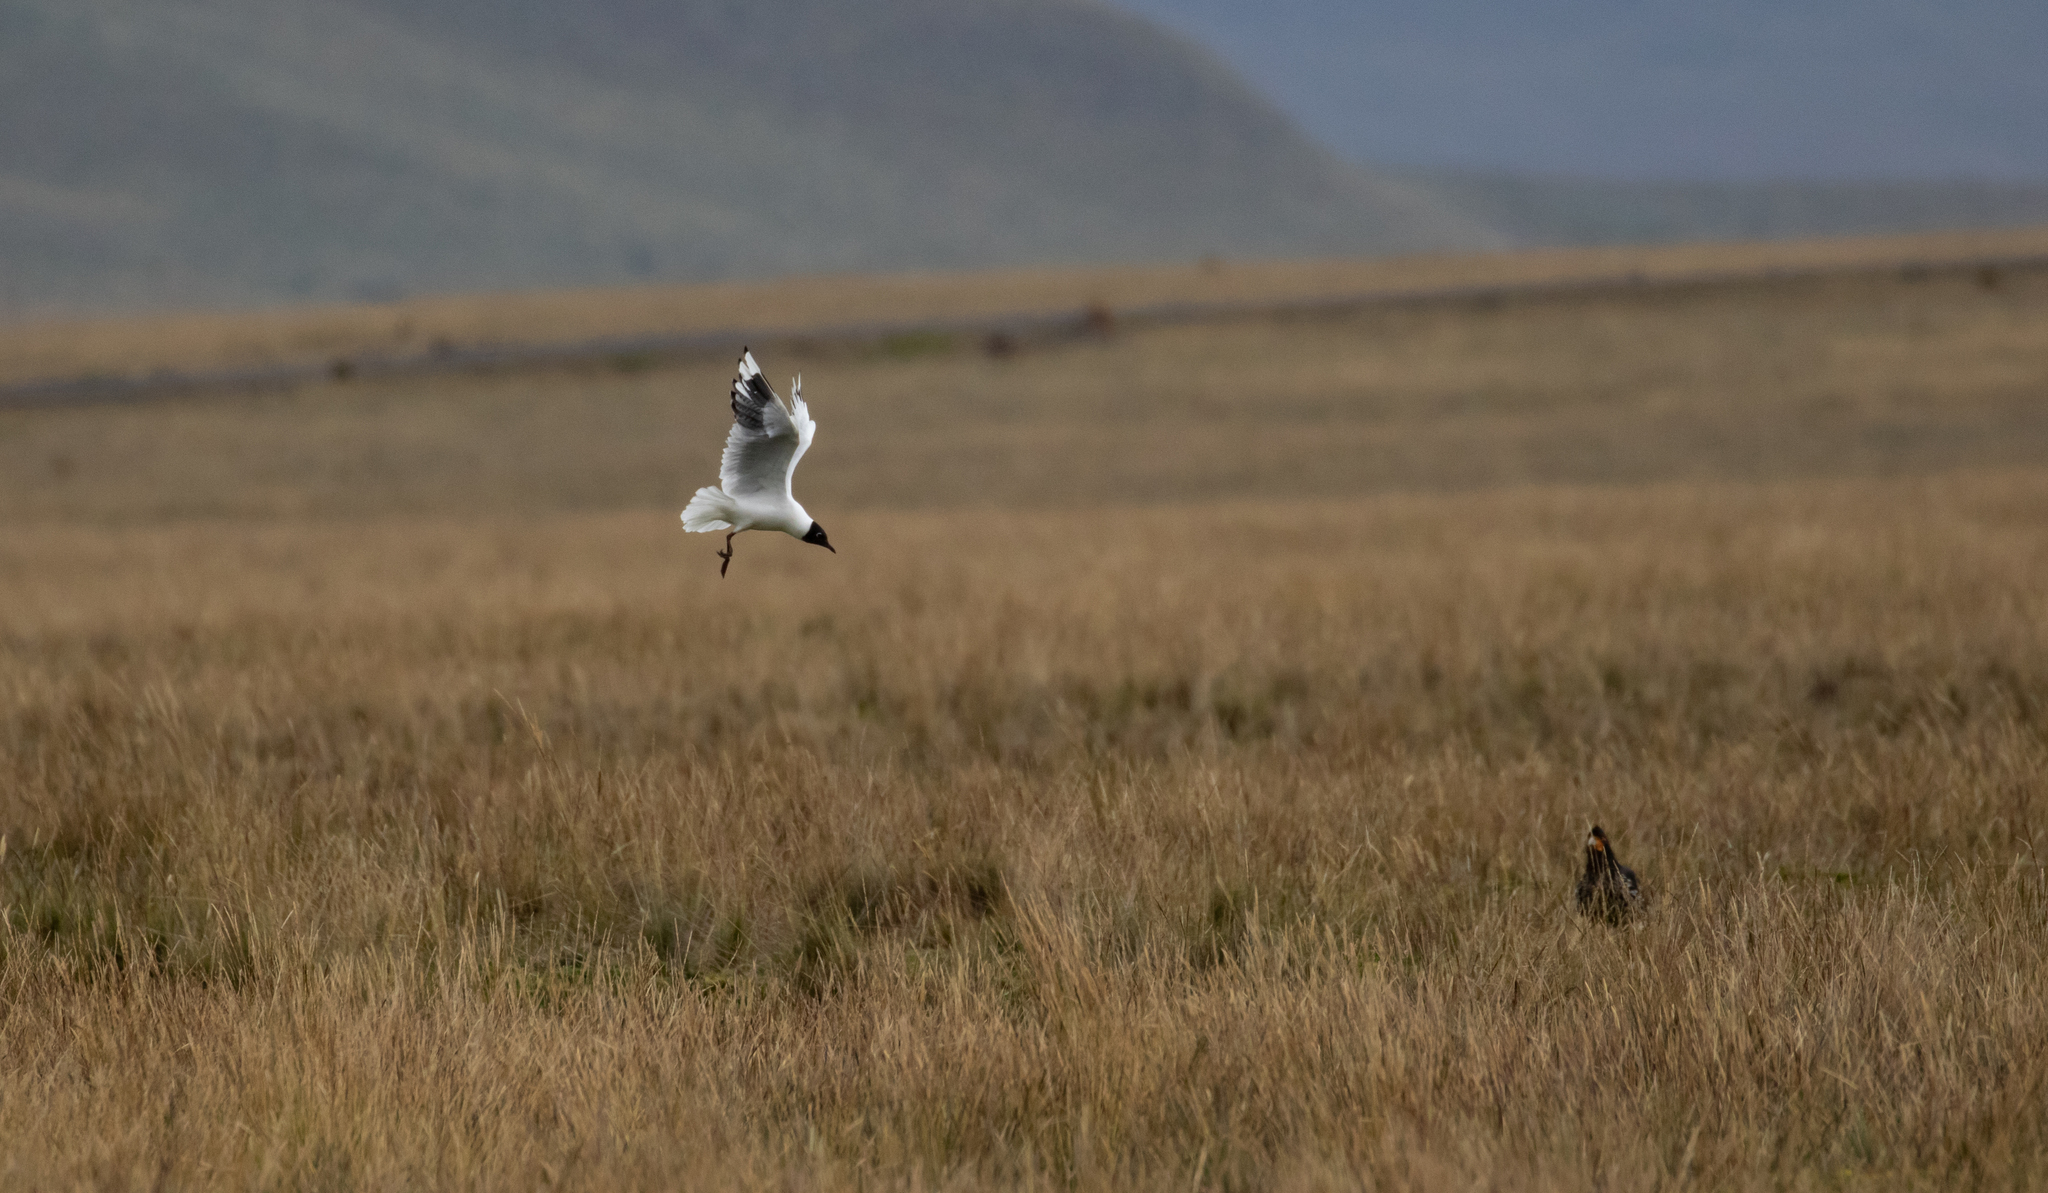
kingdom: Animalia
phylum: Chordata
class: Aves
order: Charadriiformes
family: Laridae
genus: Chroicocephalus
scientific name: Chroicocephalus serranus
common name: Andean gull
